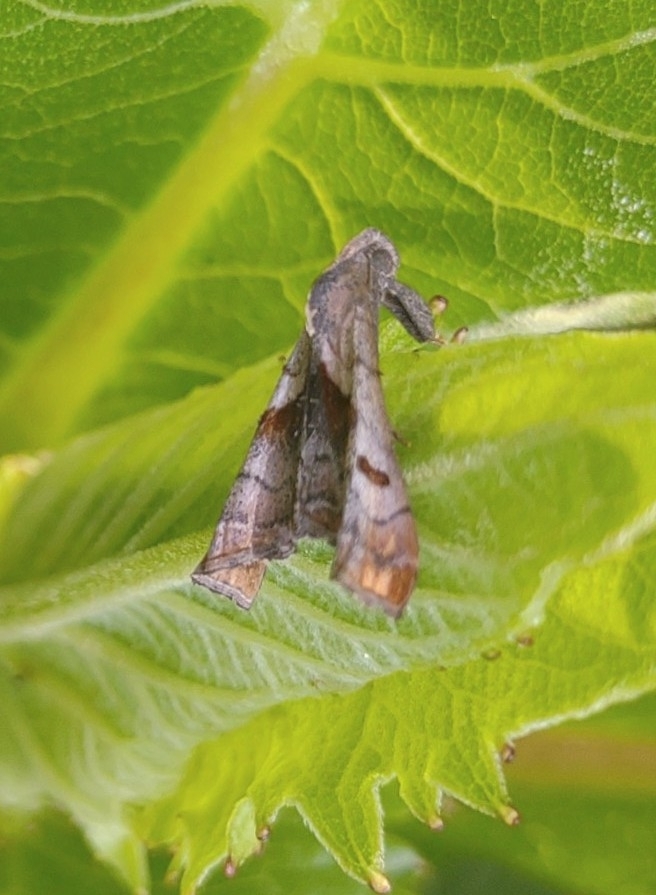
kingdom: Animalia
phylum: Arthropoda
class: Insecta
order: Lepidoptera
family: Erebidae
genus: Palthis
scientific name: Palthis angulalis
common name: Dark-spotted palthis moth
